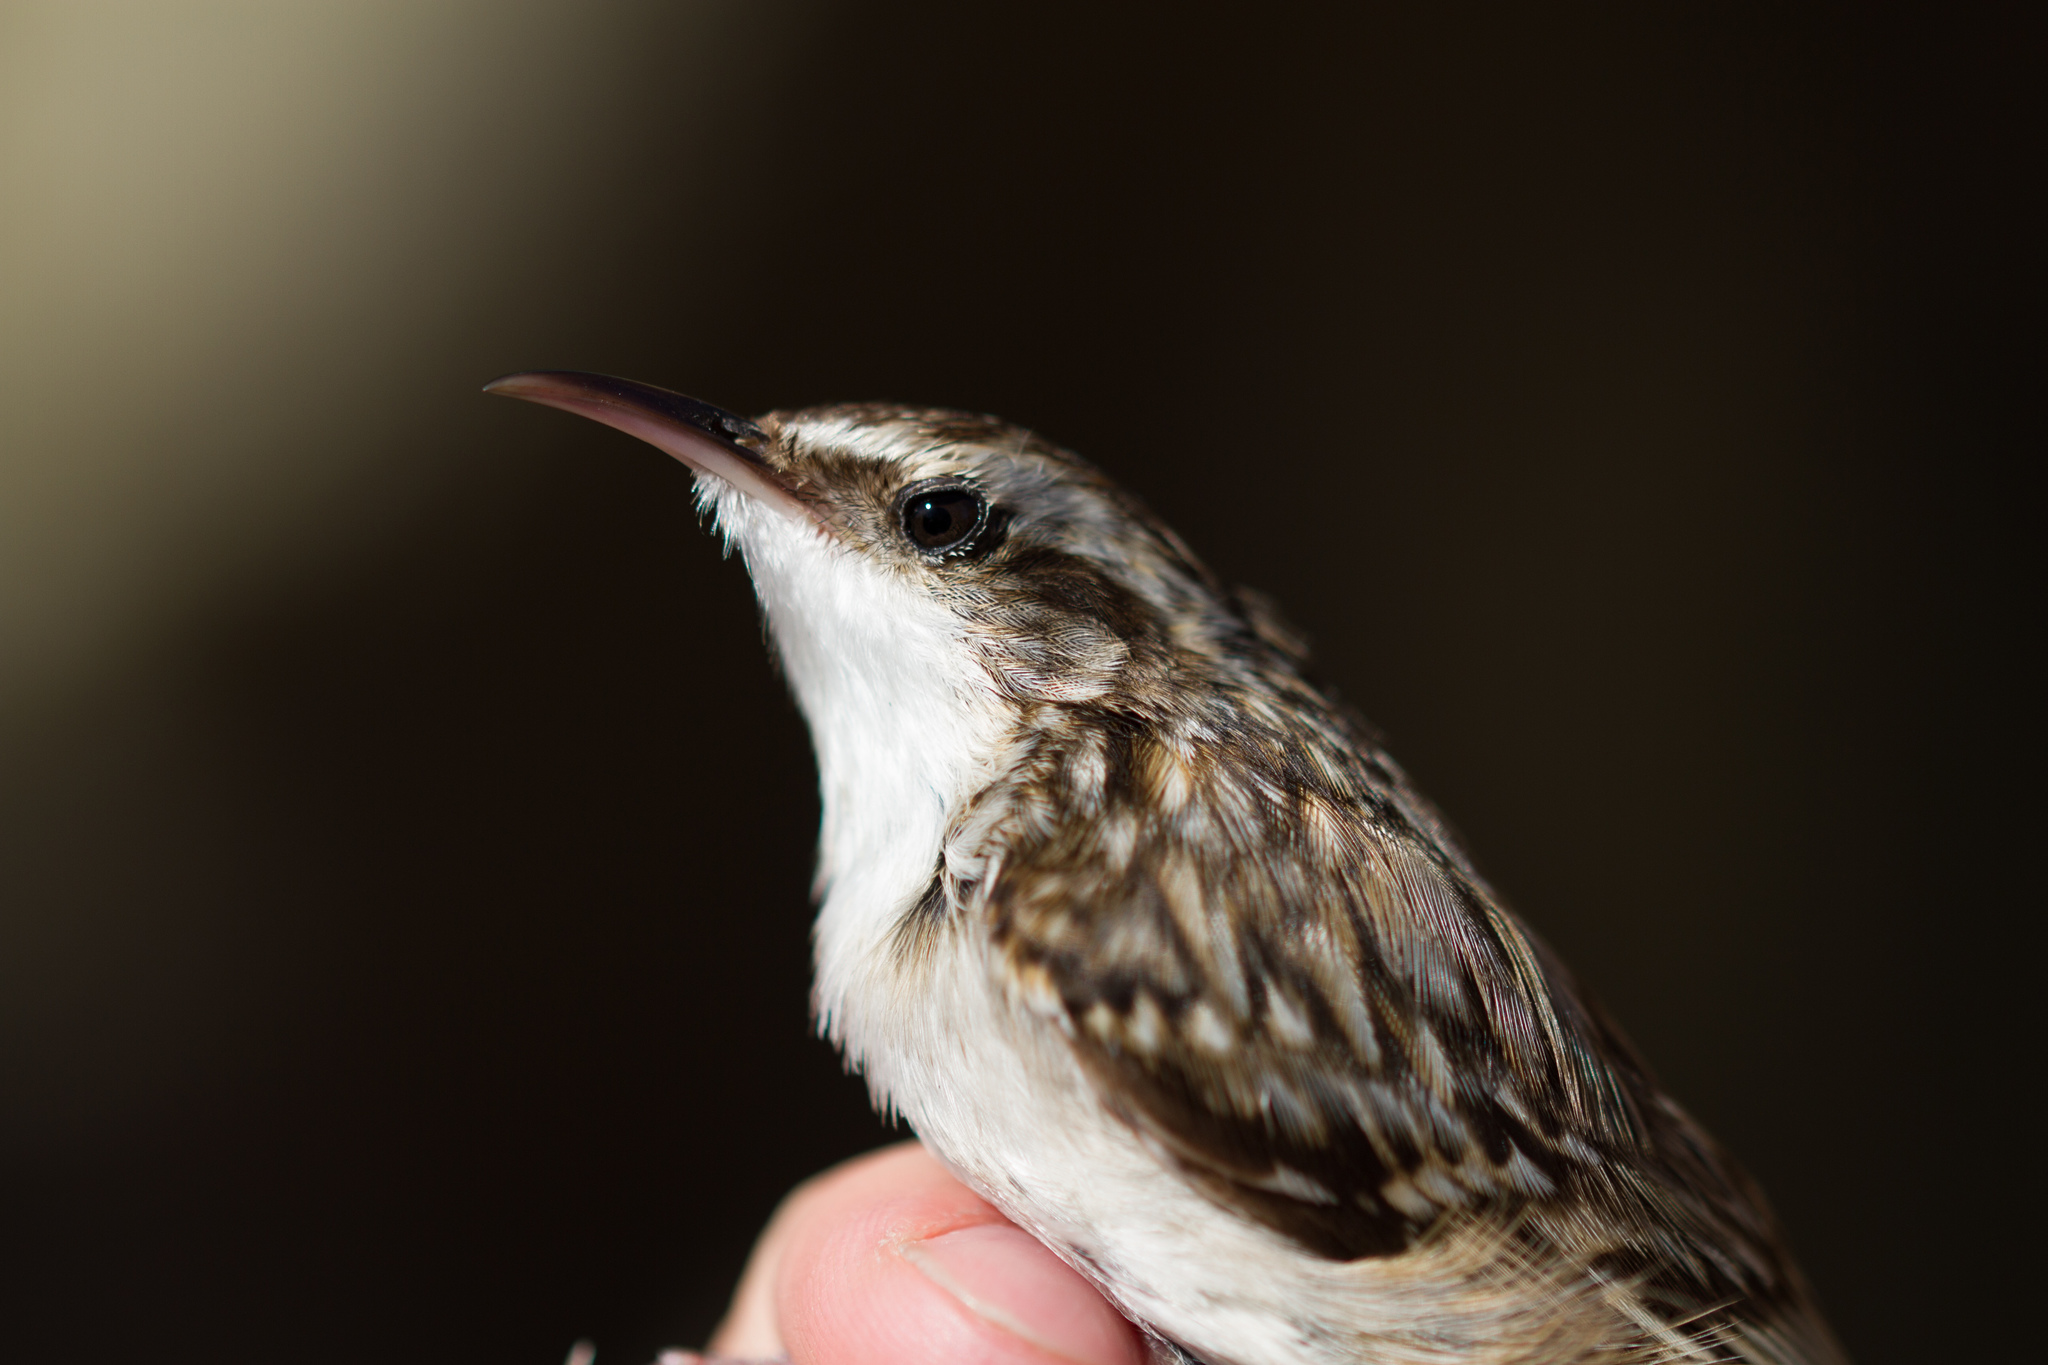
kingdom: Animalia
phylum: Chordata
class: Aves
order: Passeriformes
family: Certhiidae
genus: Certhia
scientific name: Certhia familiaris
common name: Eurasian treecreeper
